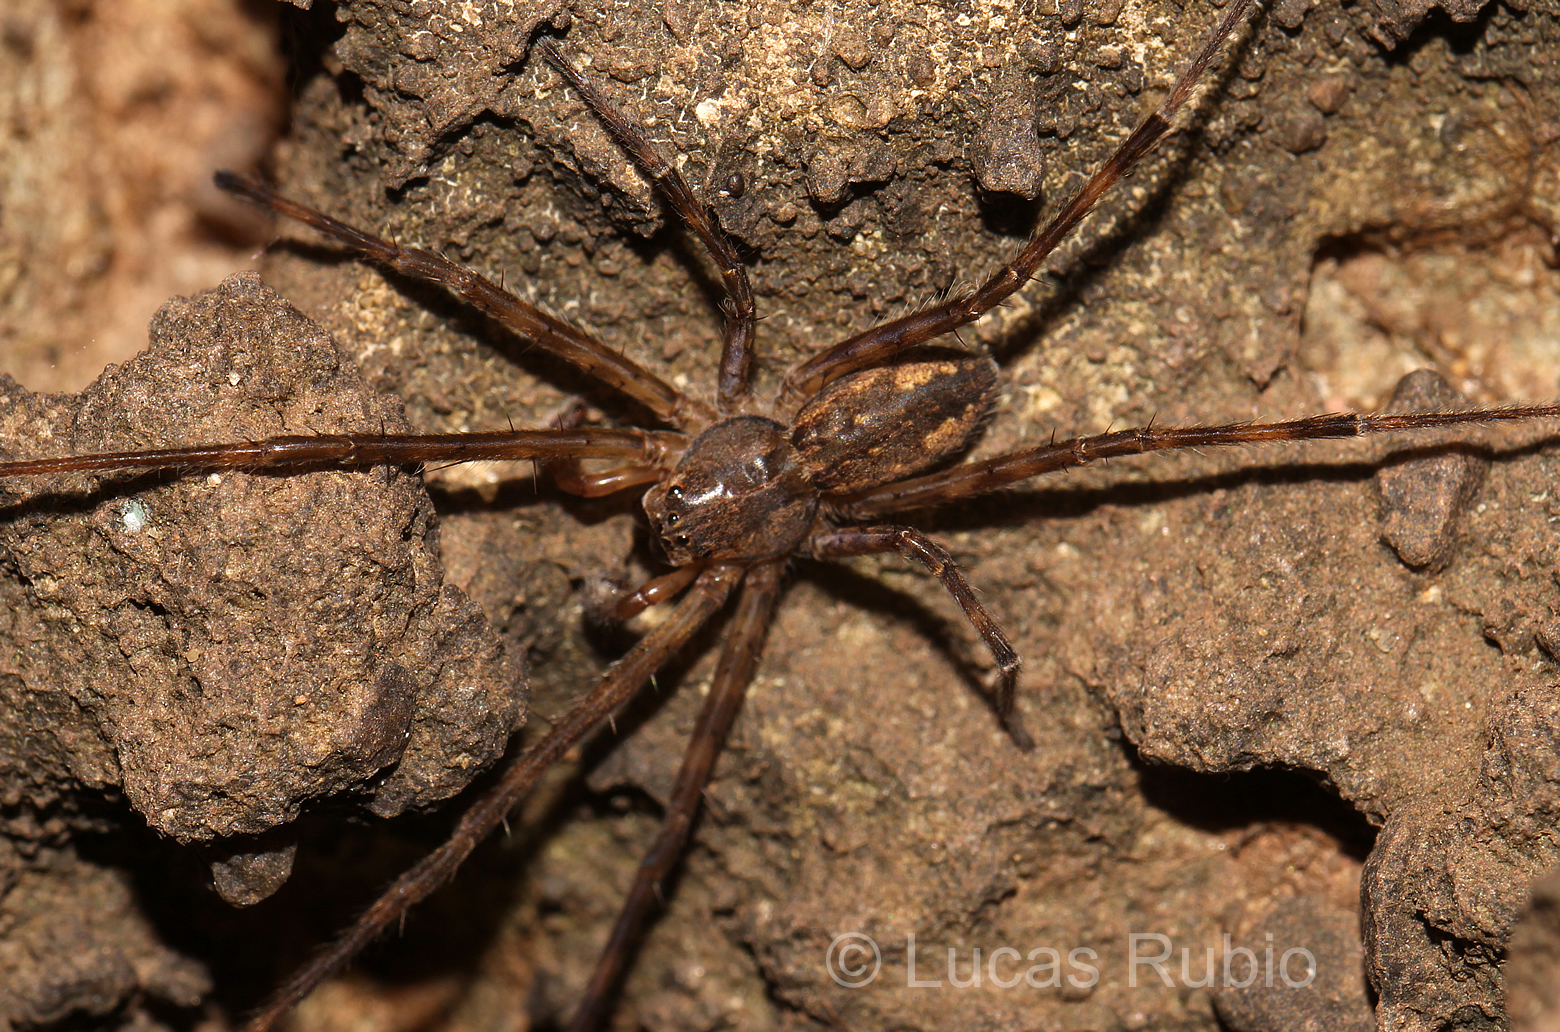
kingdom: Animalia
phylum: Arthropoda
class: Arachnida
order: Araneae
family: Trechaleidae
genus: Paradossenus
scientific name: Paradossenus longipes
